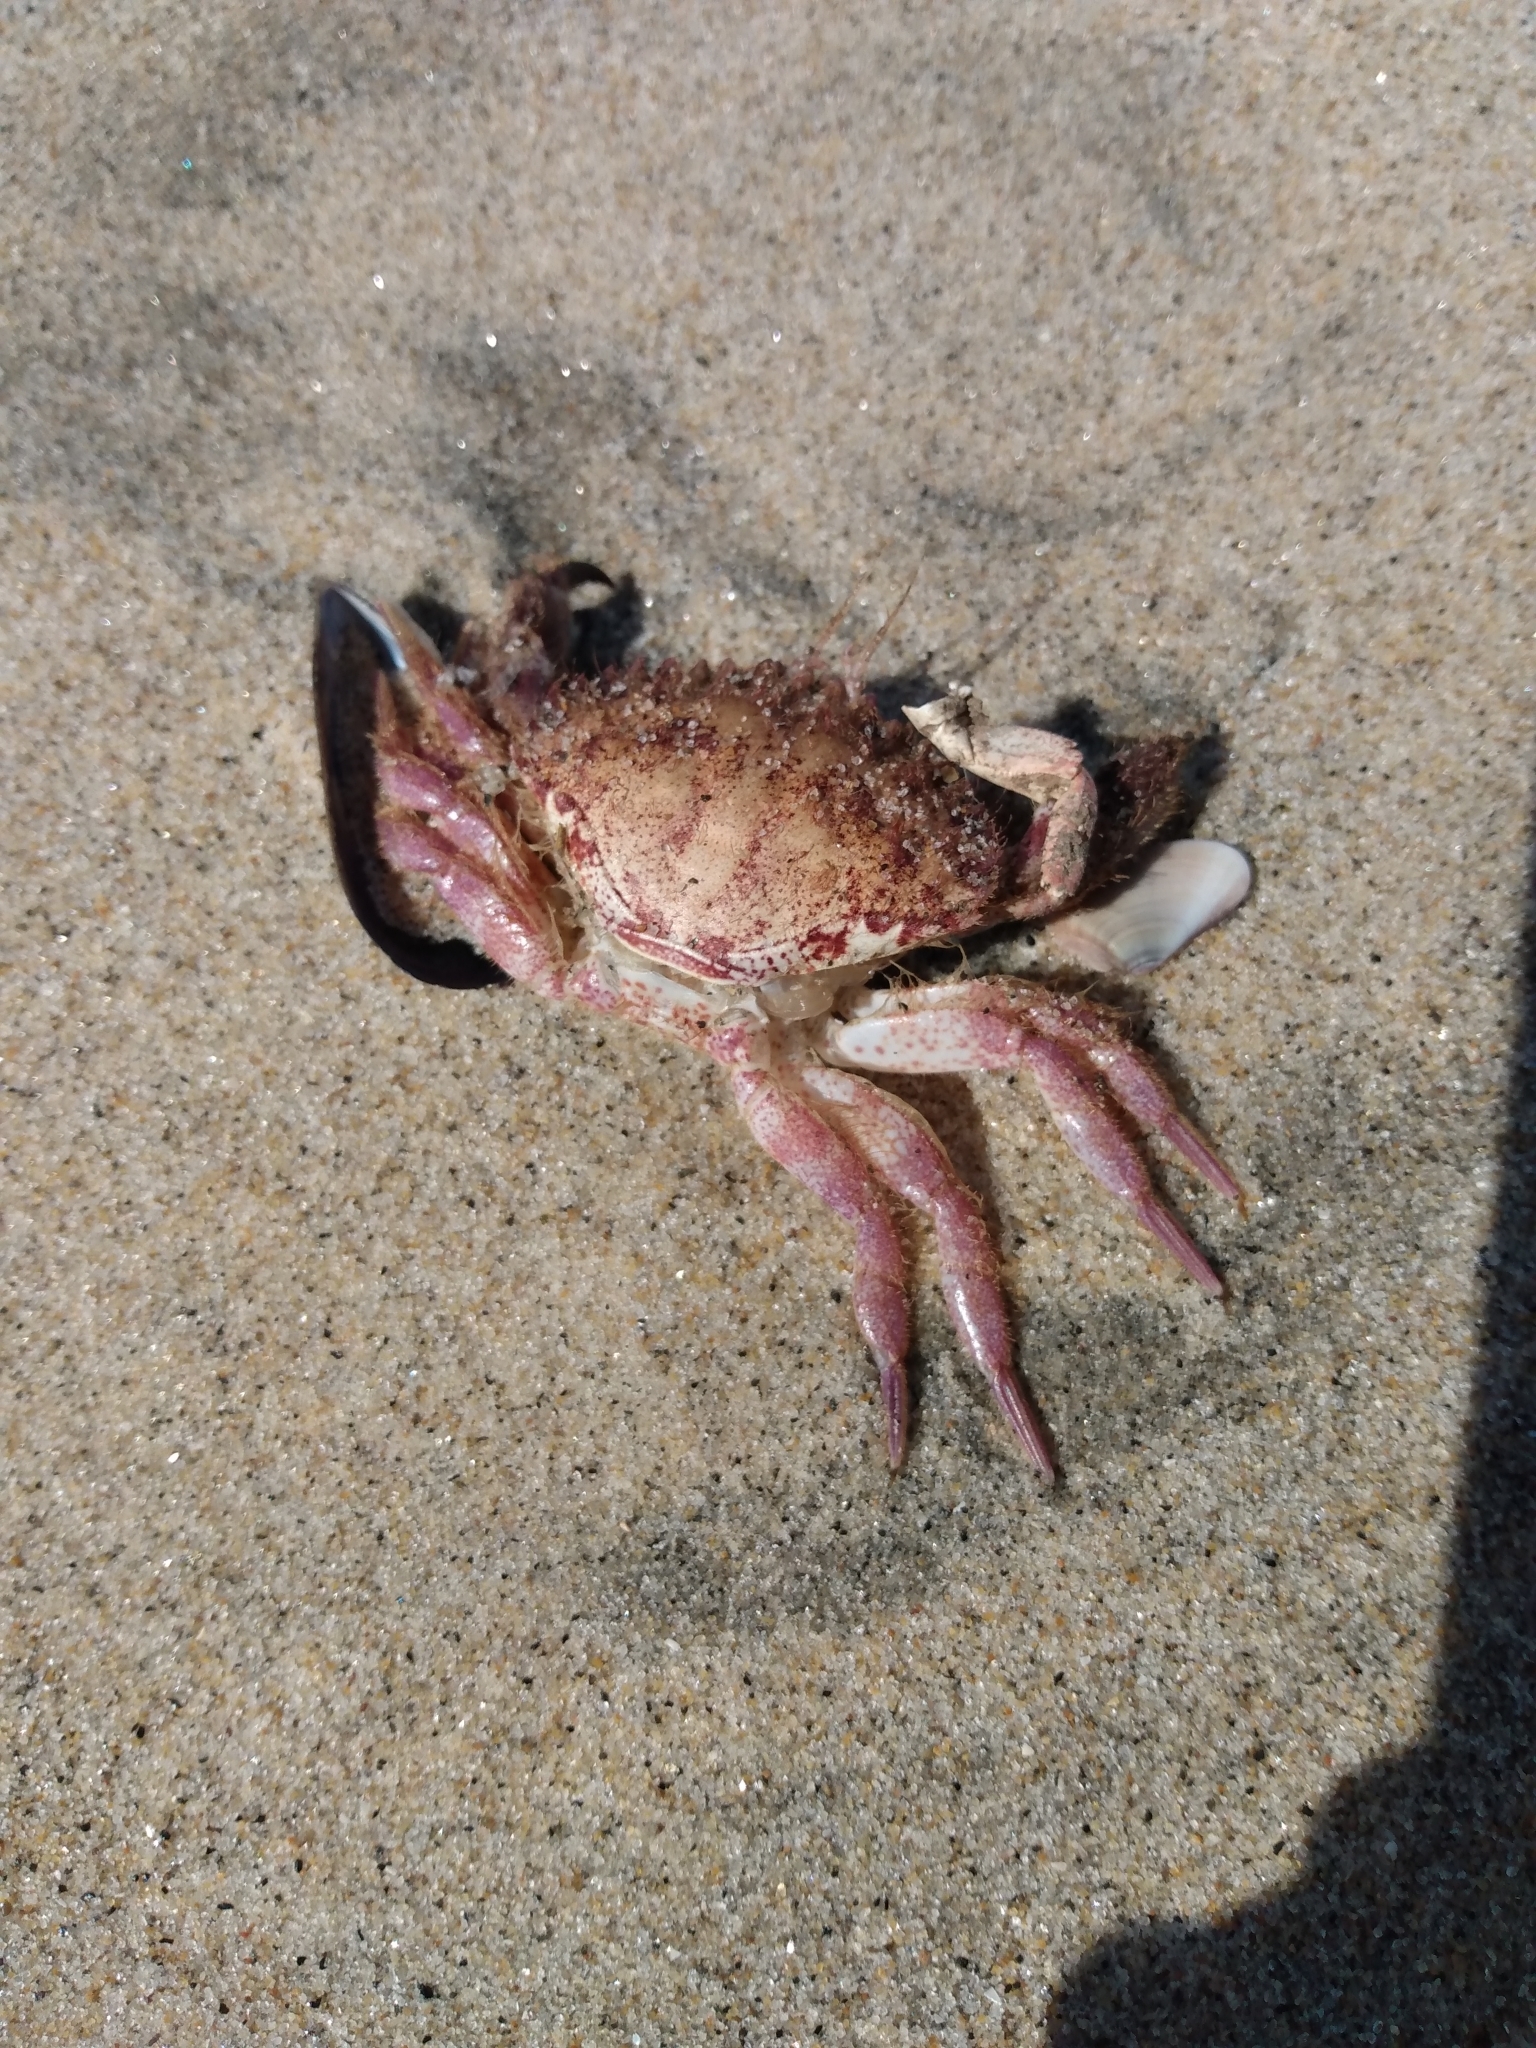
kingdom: Animalia
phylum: Arthropoda
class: Malacostraca
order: Decapoda
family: Cancridae
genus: Romaleon
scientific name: Romaleon antennarium
